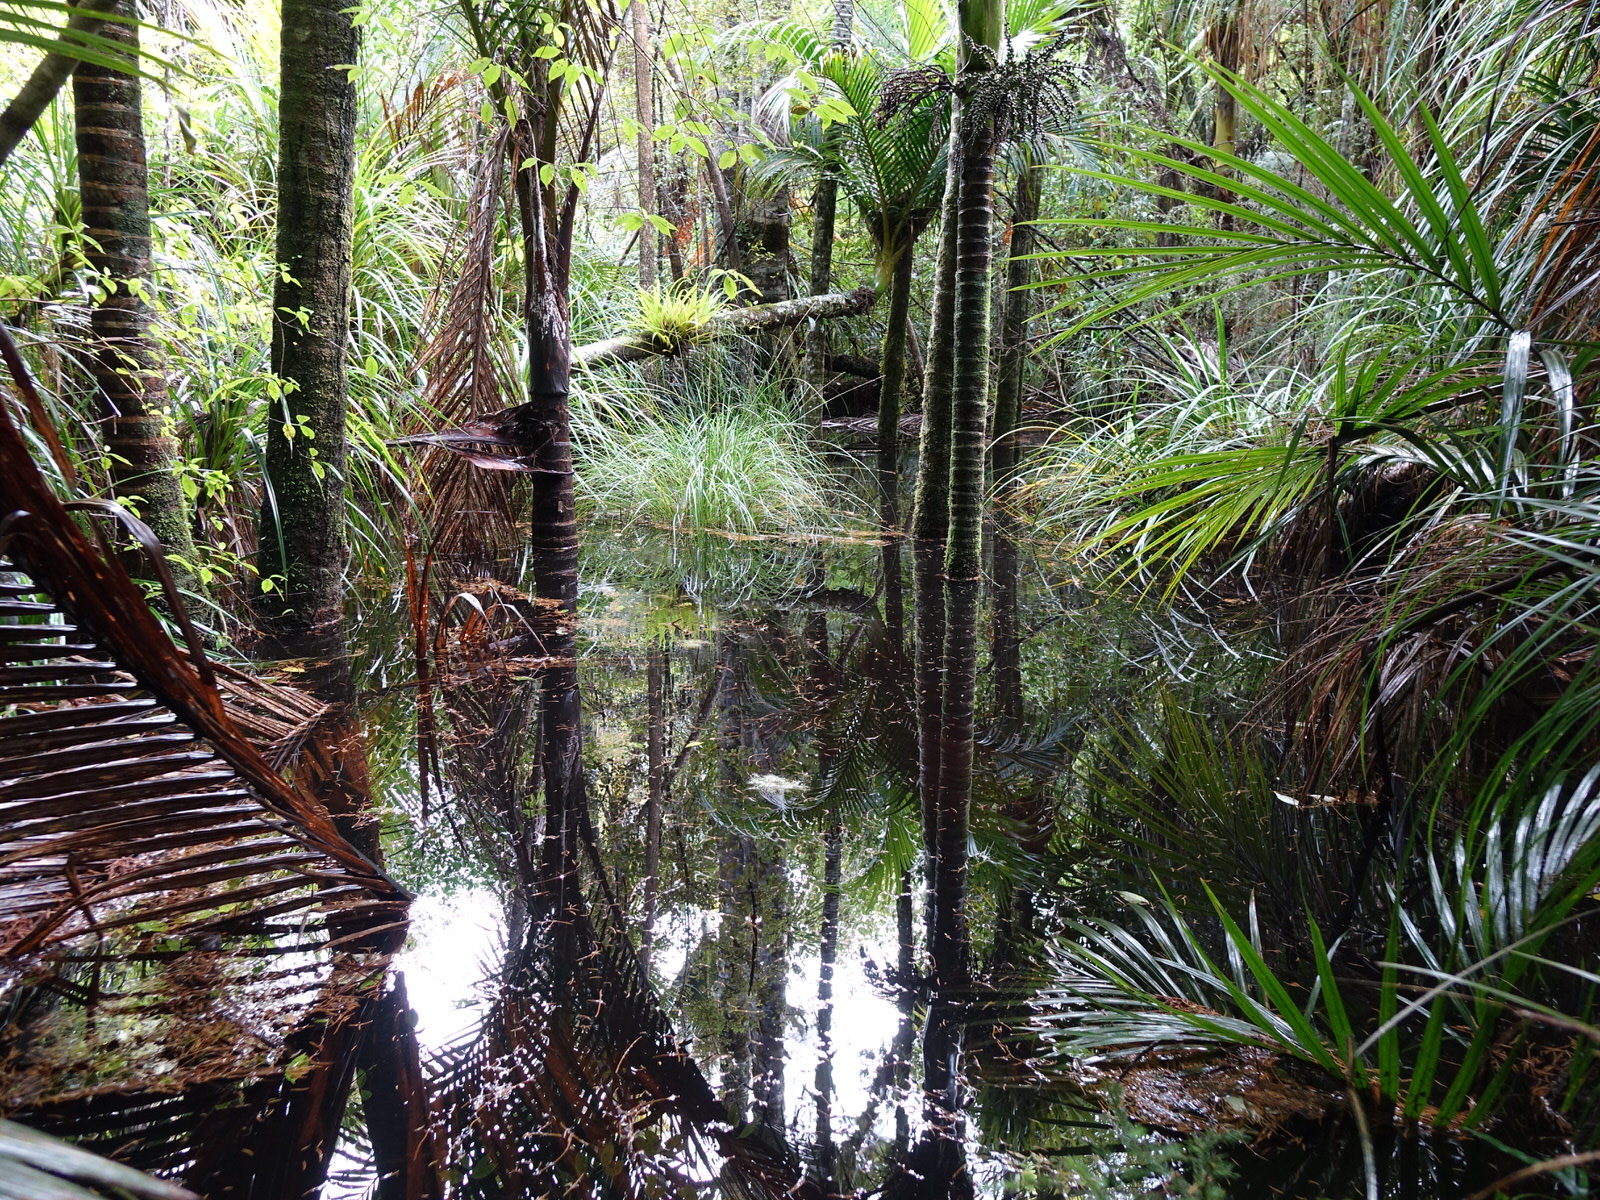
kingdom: Plantae
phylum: Tracheophyta
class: Liliopsida
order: Arecales
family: Arecaceae
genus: Rhopalostylis
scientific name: Rhopalostylis sapida
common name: Feather-duster palm
